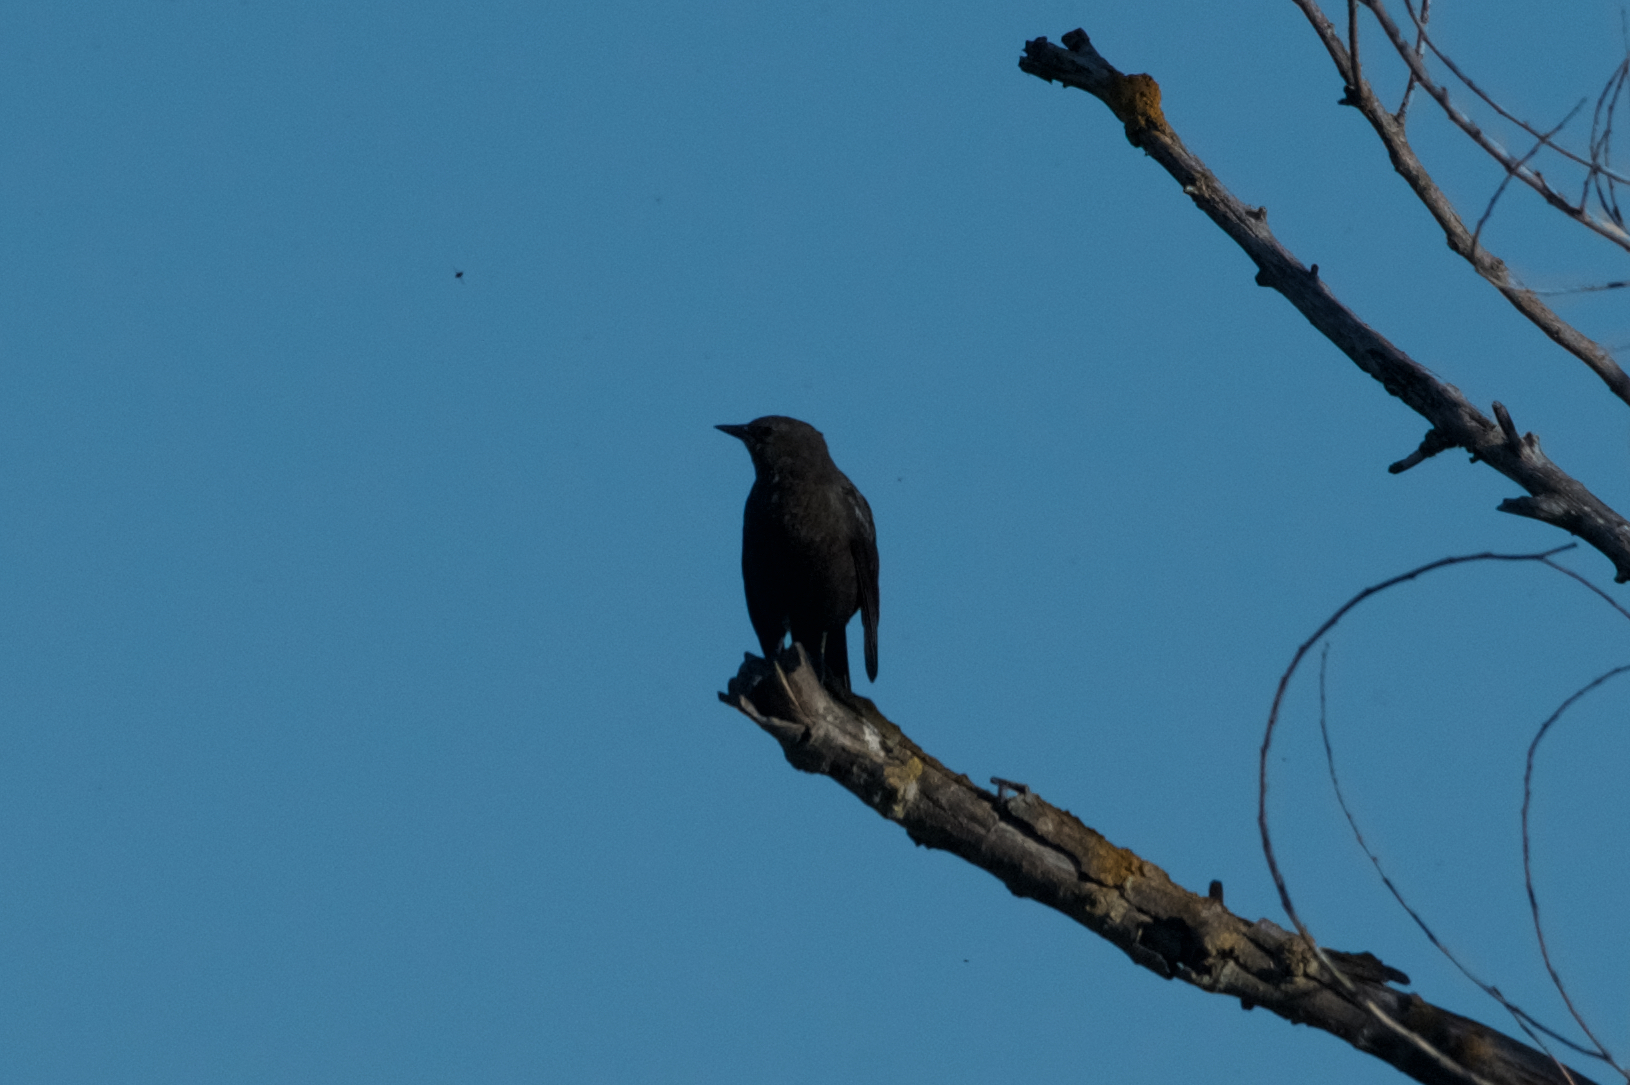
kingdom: Animalia
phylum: Chordata
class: Aves
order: Passeriformes
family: Icteridae
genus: Euphagus
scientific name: Euphagus cyanocephalus
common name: Brewer's blackbird
